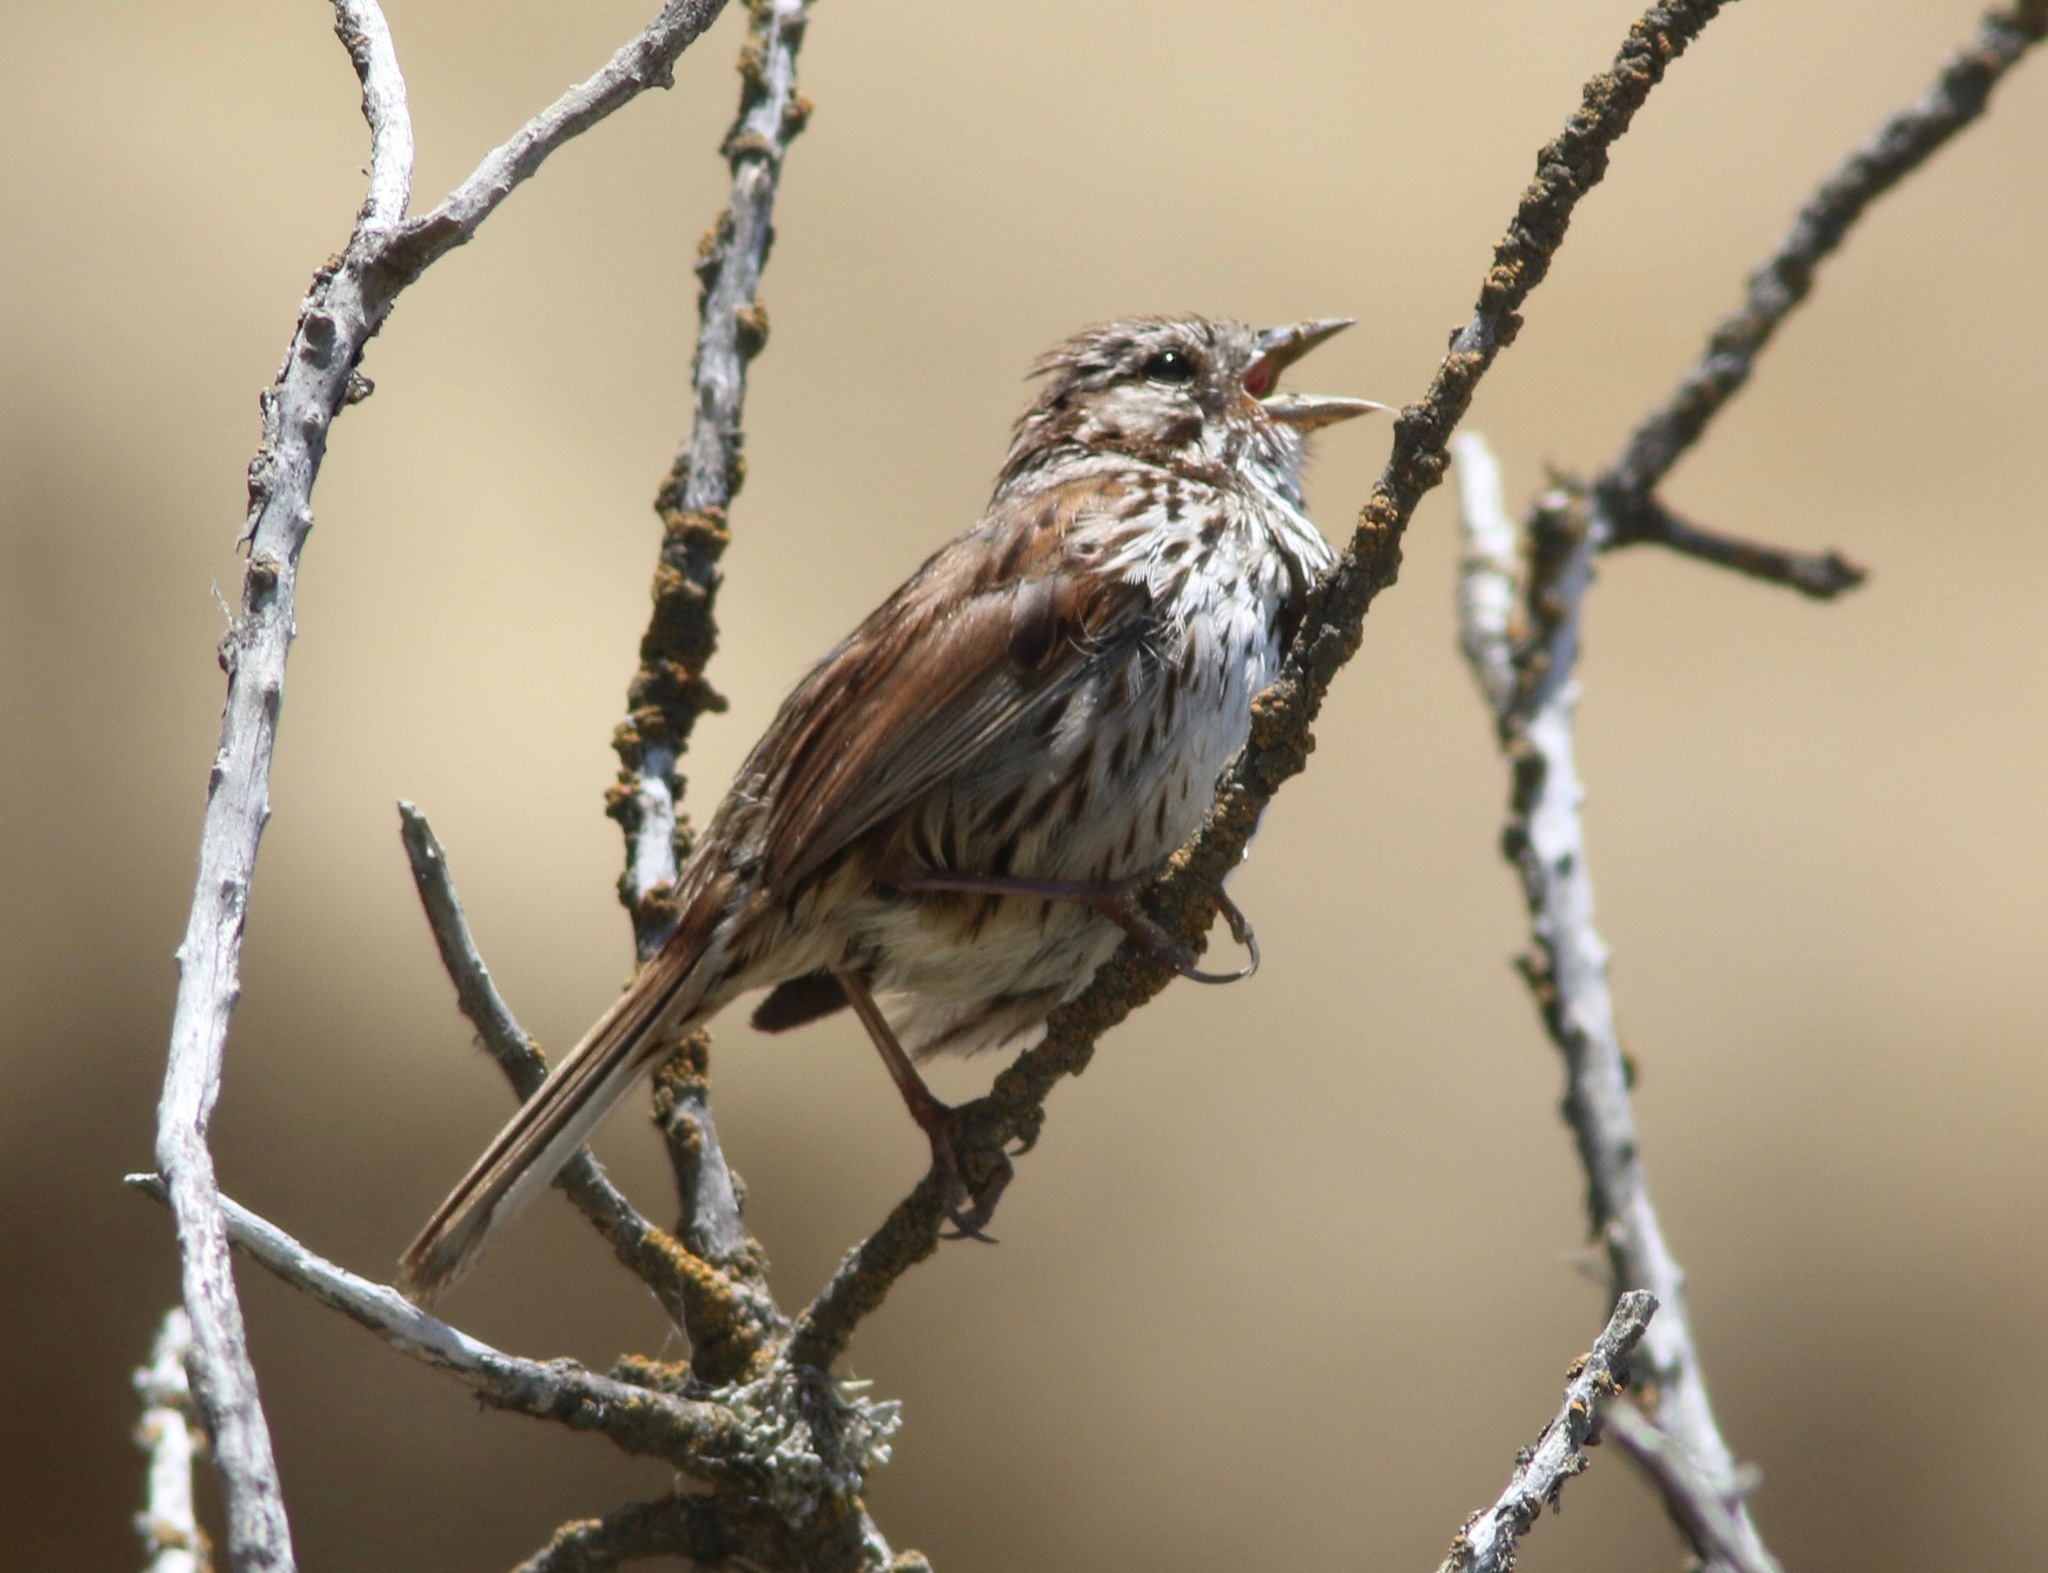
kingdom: Animalia
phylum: Chordata
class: Aves
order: Passeriformes
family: Passerellidae
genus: Melospiza
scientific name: Melospiza melodia
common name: Song sparrow
